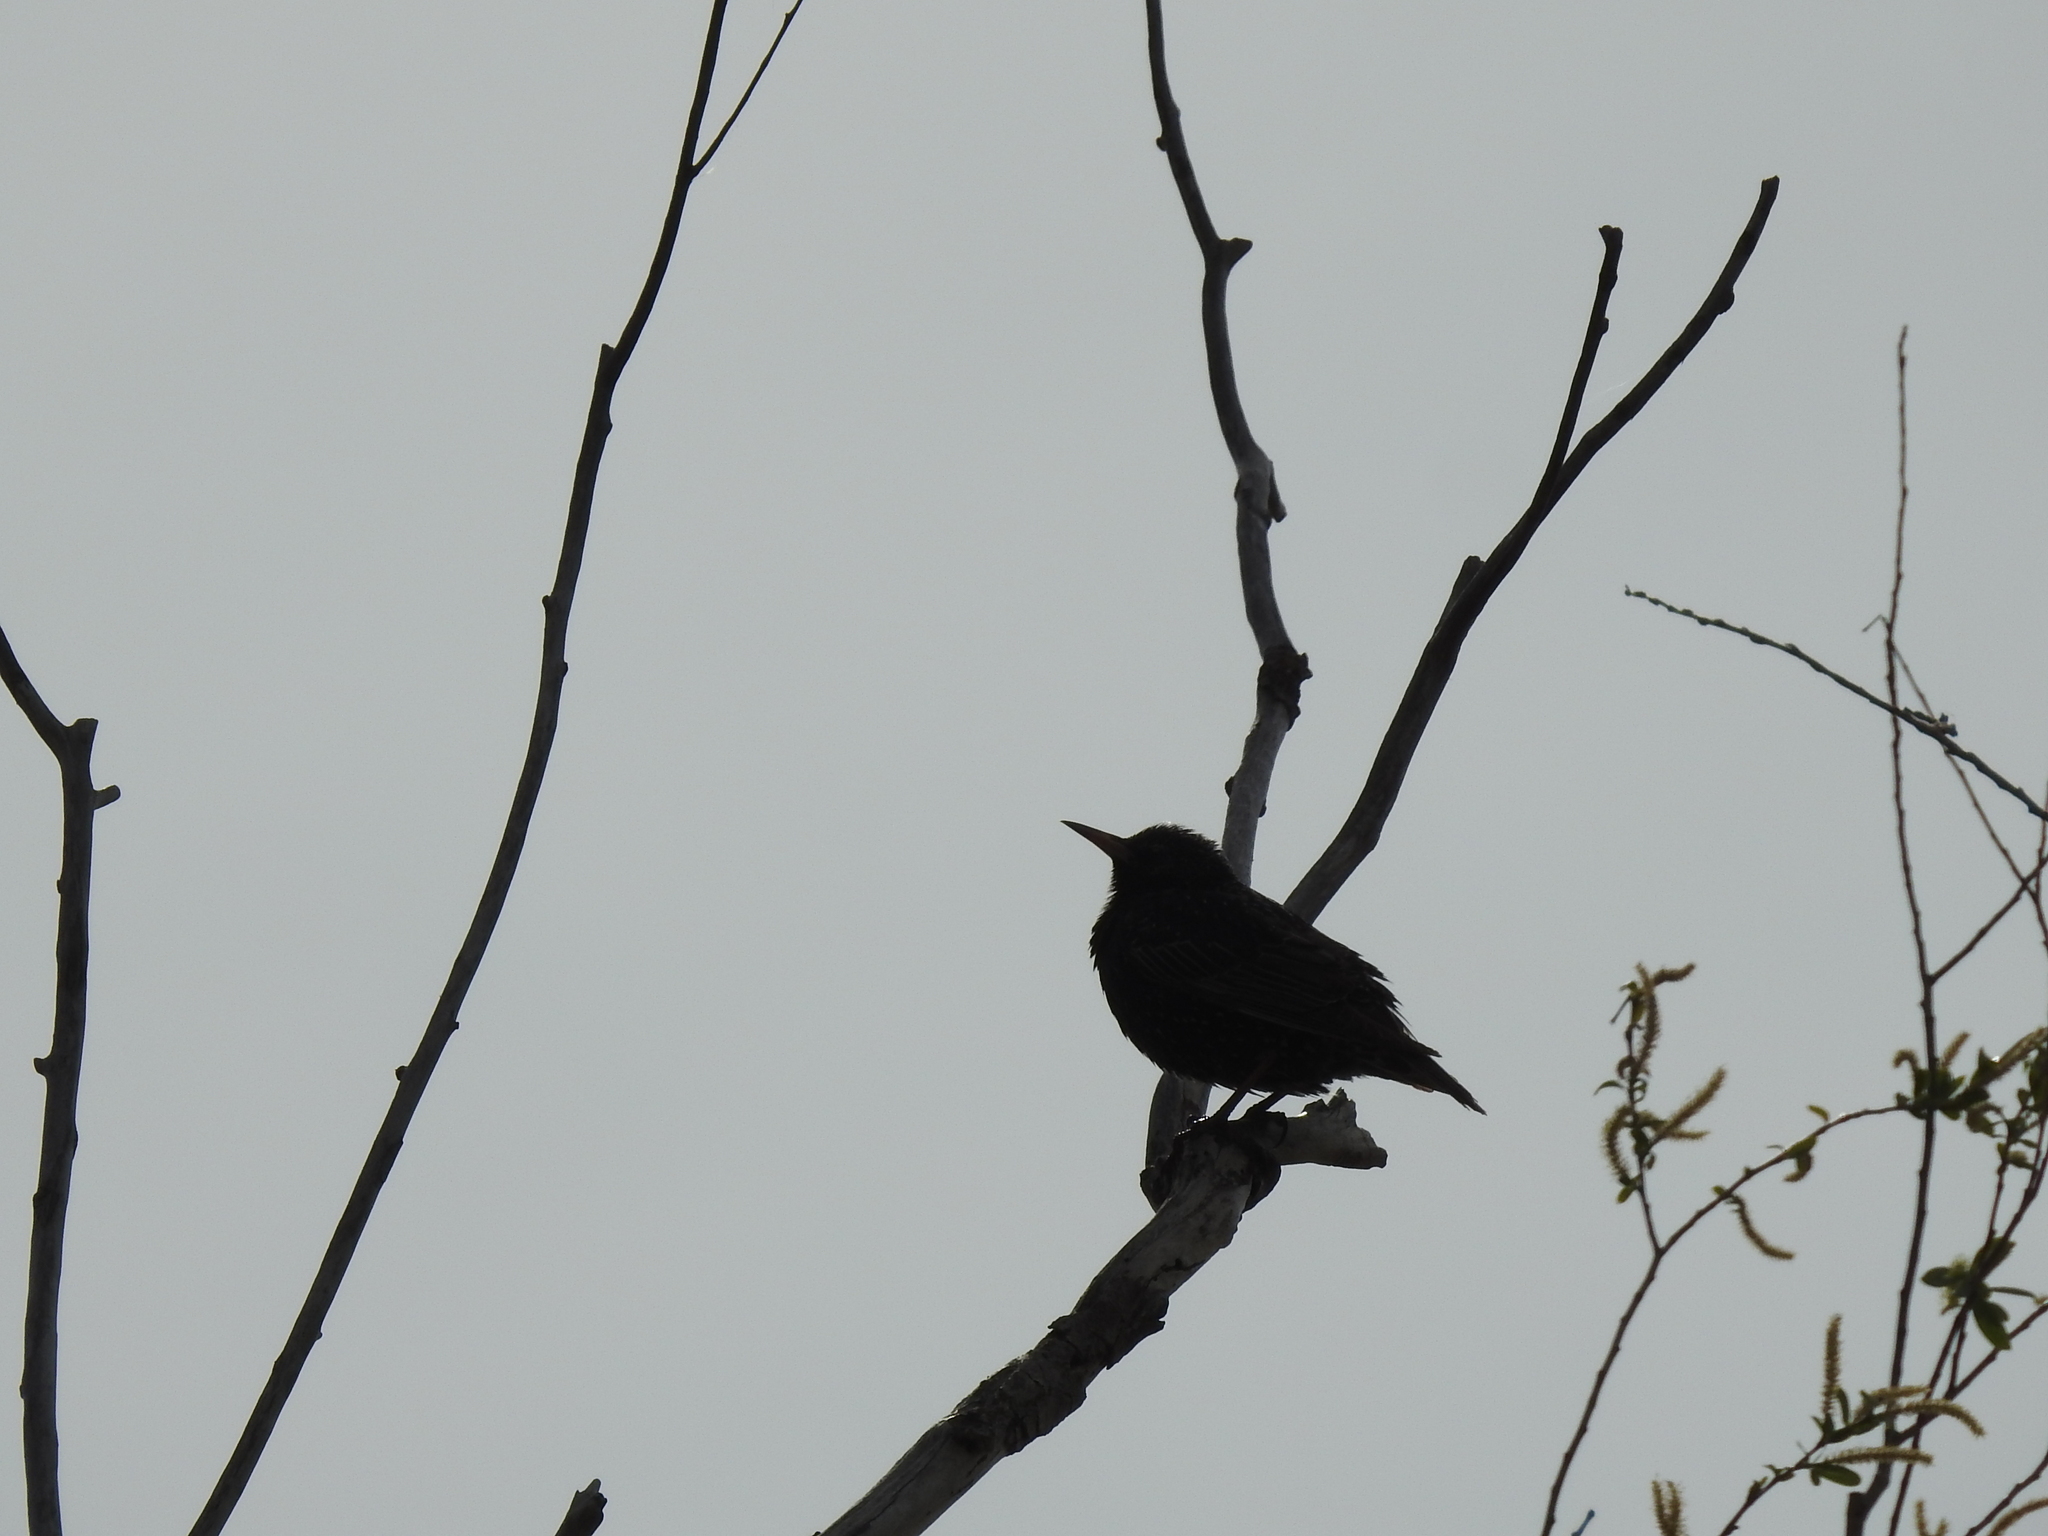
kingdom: Animalia
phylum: Chordata
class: Aves
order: Passeriformes
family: Sturnidae
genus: Sturnus
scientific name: Sturnus vulgaris
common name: Common starling
